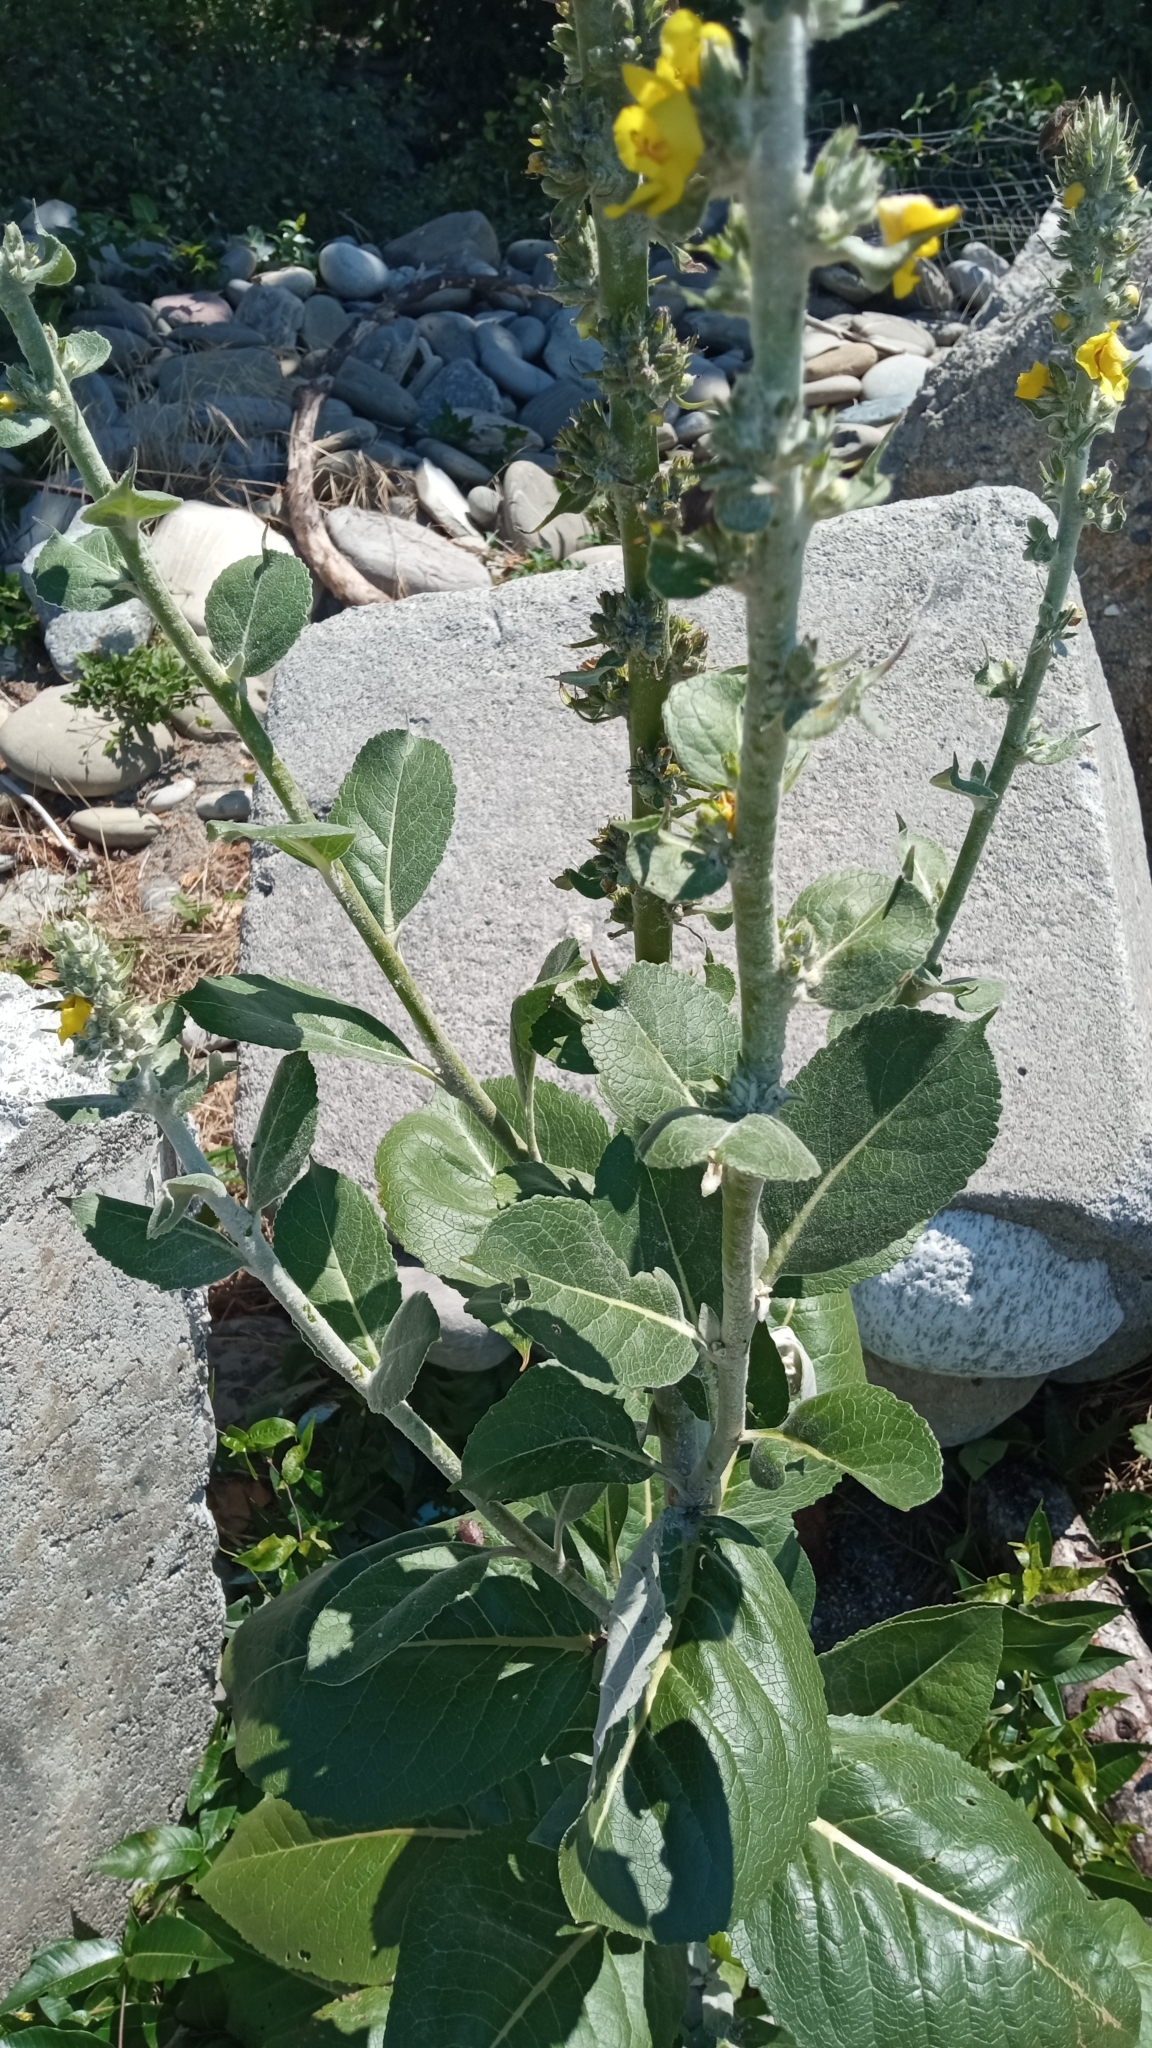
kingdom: Plantae
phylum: Tracheophyta
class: Magnoliopsida
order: Lamiales
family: Scrophulariaceae
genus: Verbascum
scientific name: Verbascum gnaphalodes
